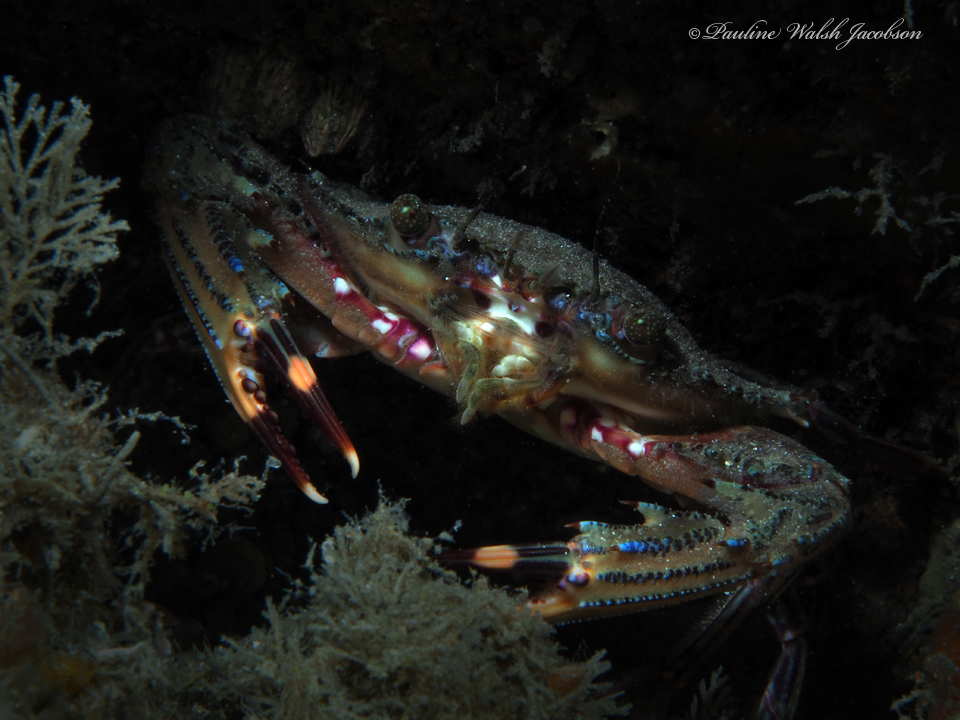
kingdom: Animalia
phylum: Arthropoda
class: Malacostraca
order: Decapoda
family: Portunidae
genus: Cronius
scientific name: Cronius ruber
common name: Red crab
